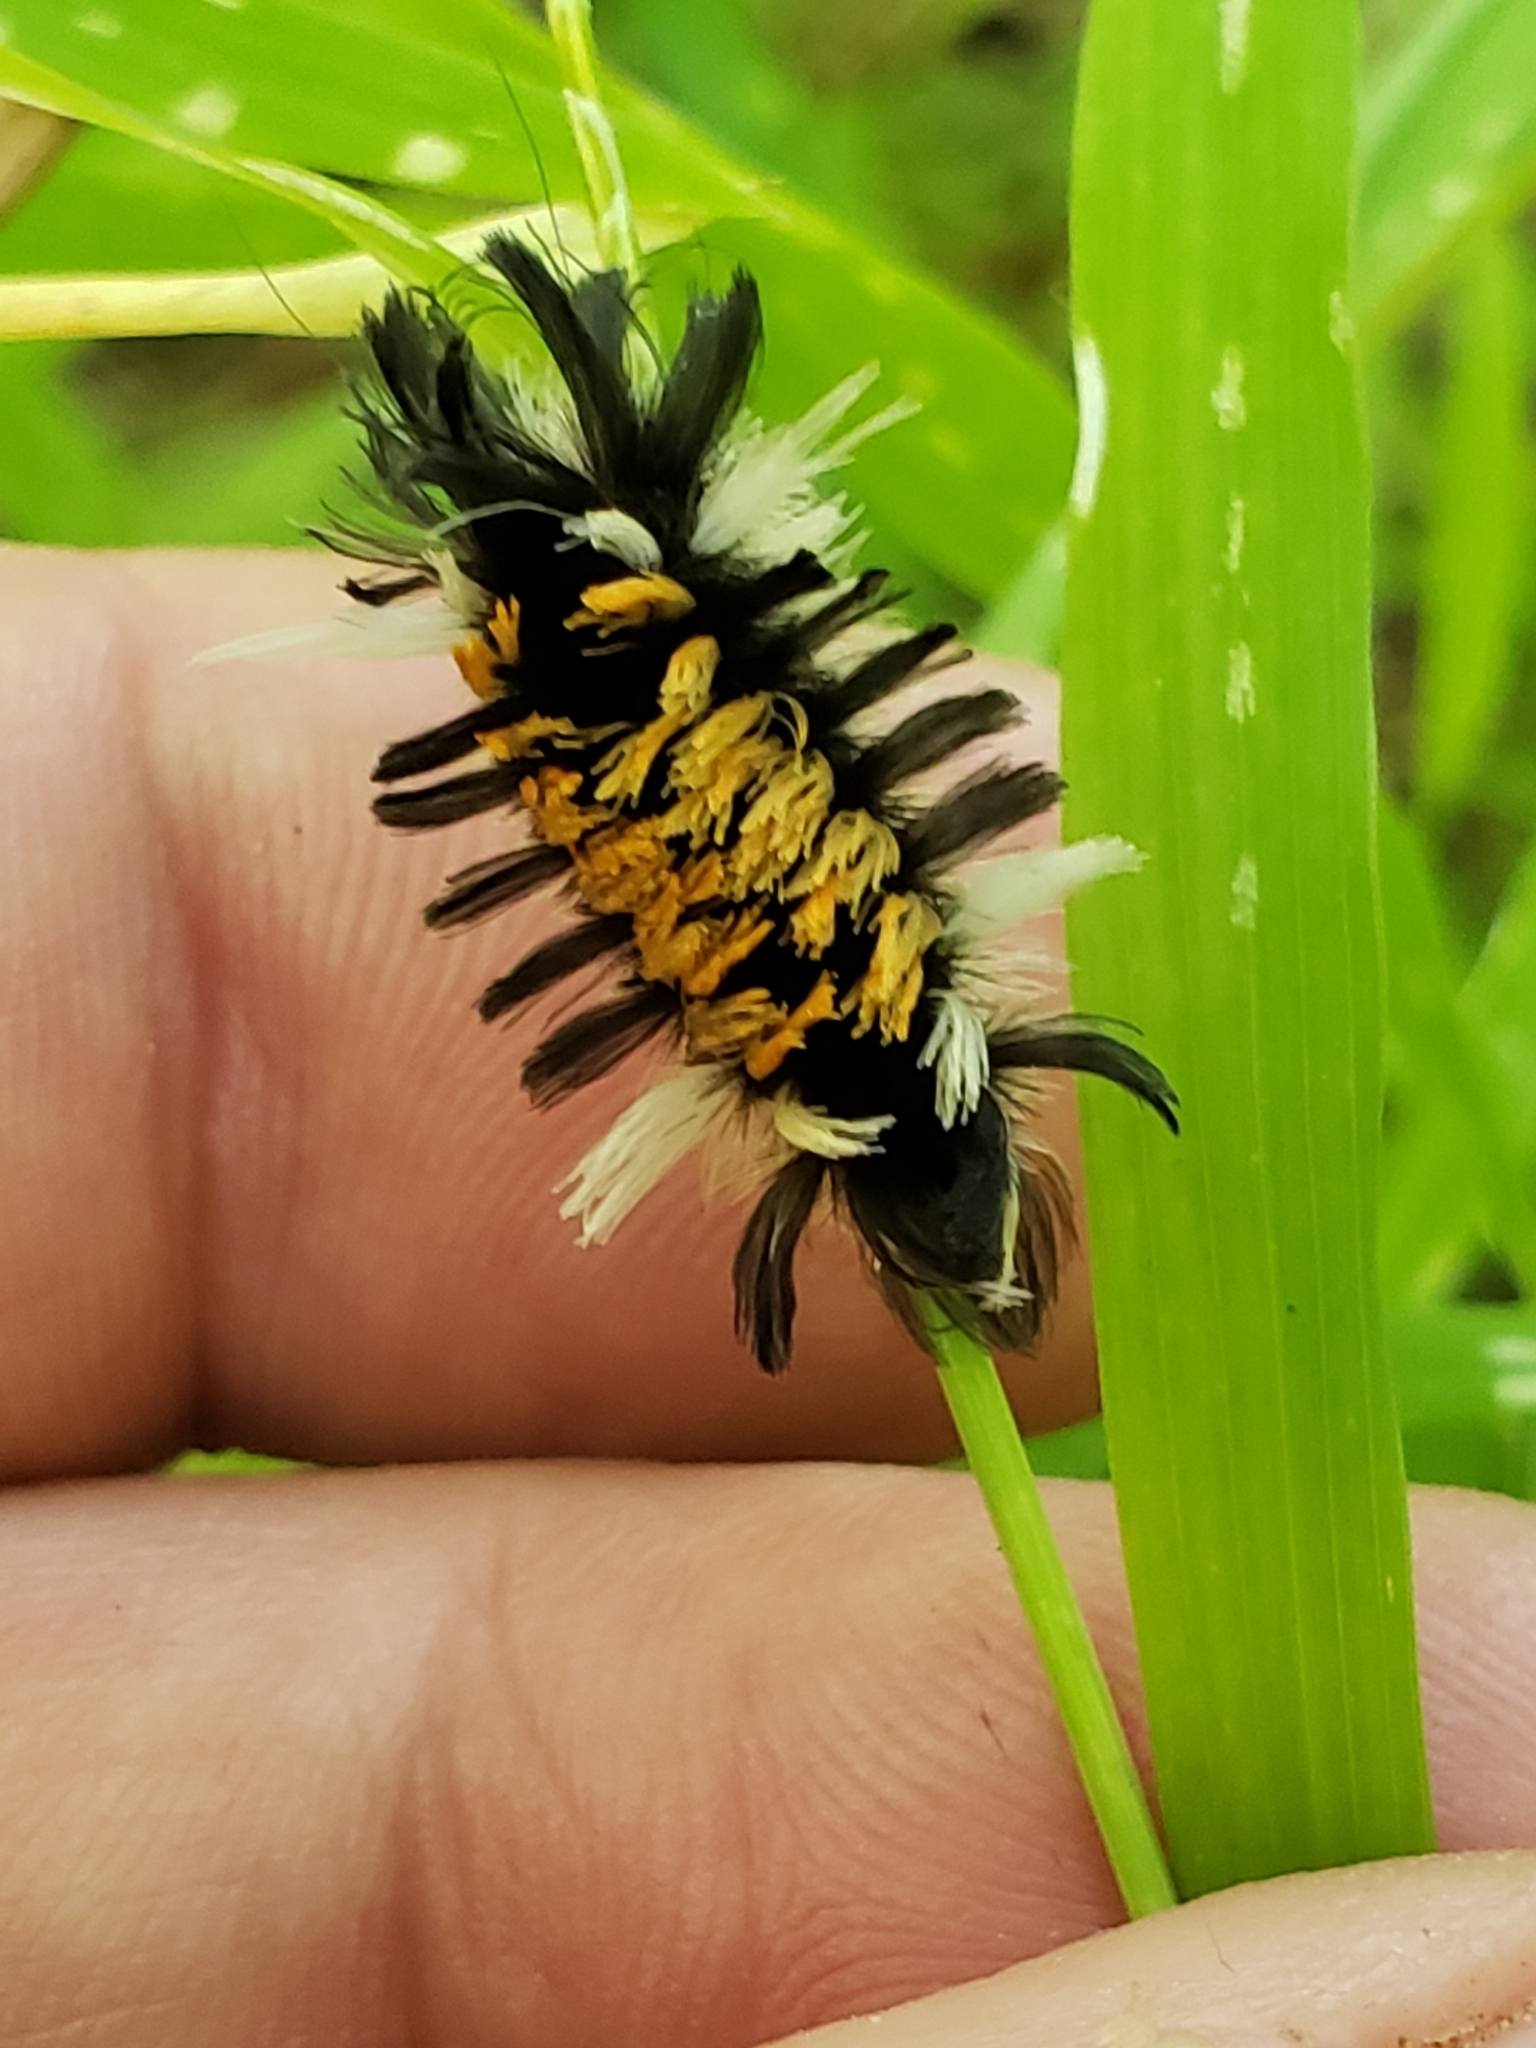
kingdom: Animalia
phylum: Arthropoda
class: Insecta
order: Lepidoptera
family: Erebidae
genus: Euchaetes
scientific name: Euchaetes egle
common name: Milkweed tussock moth
